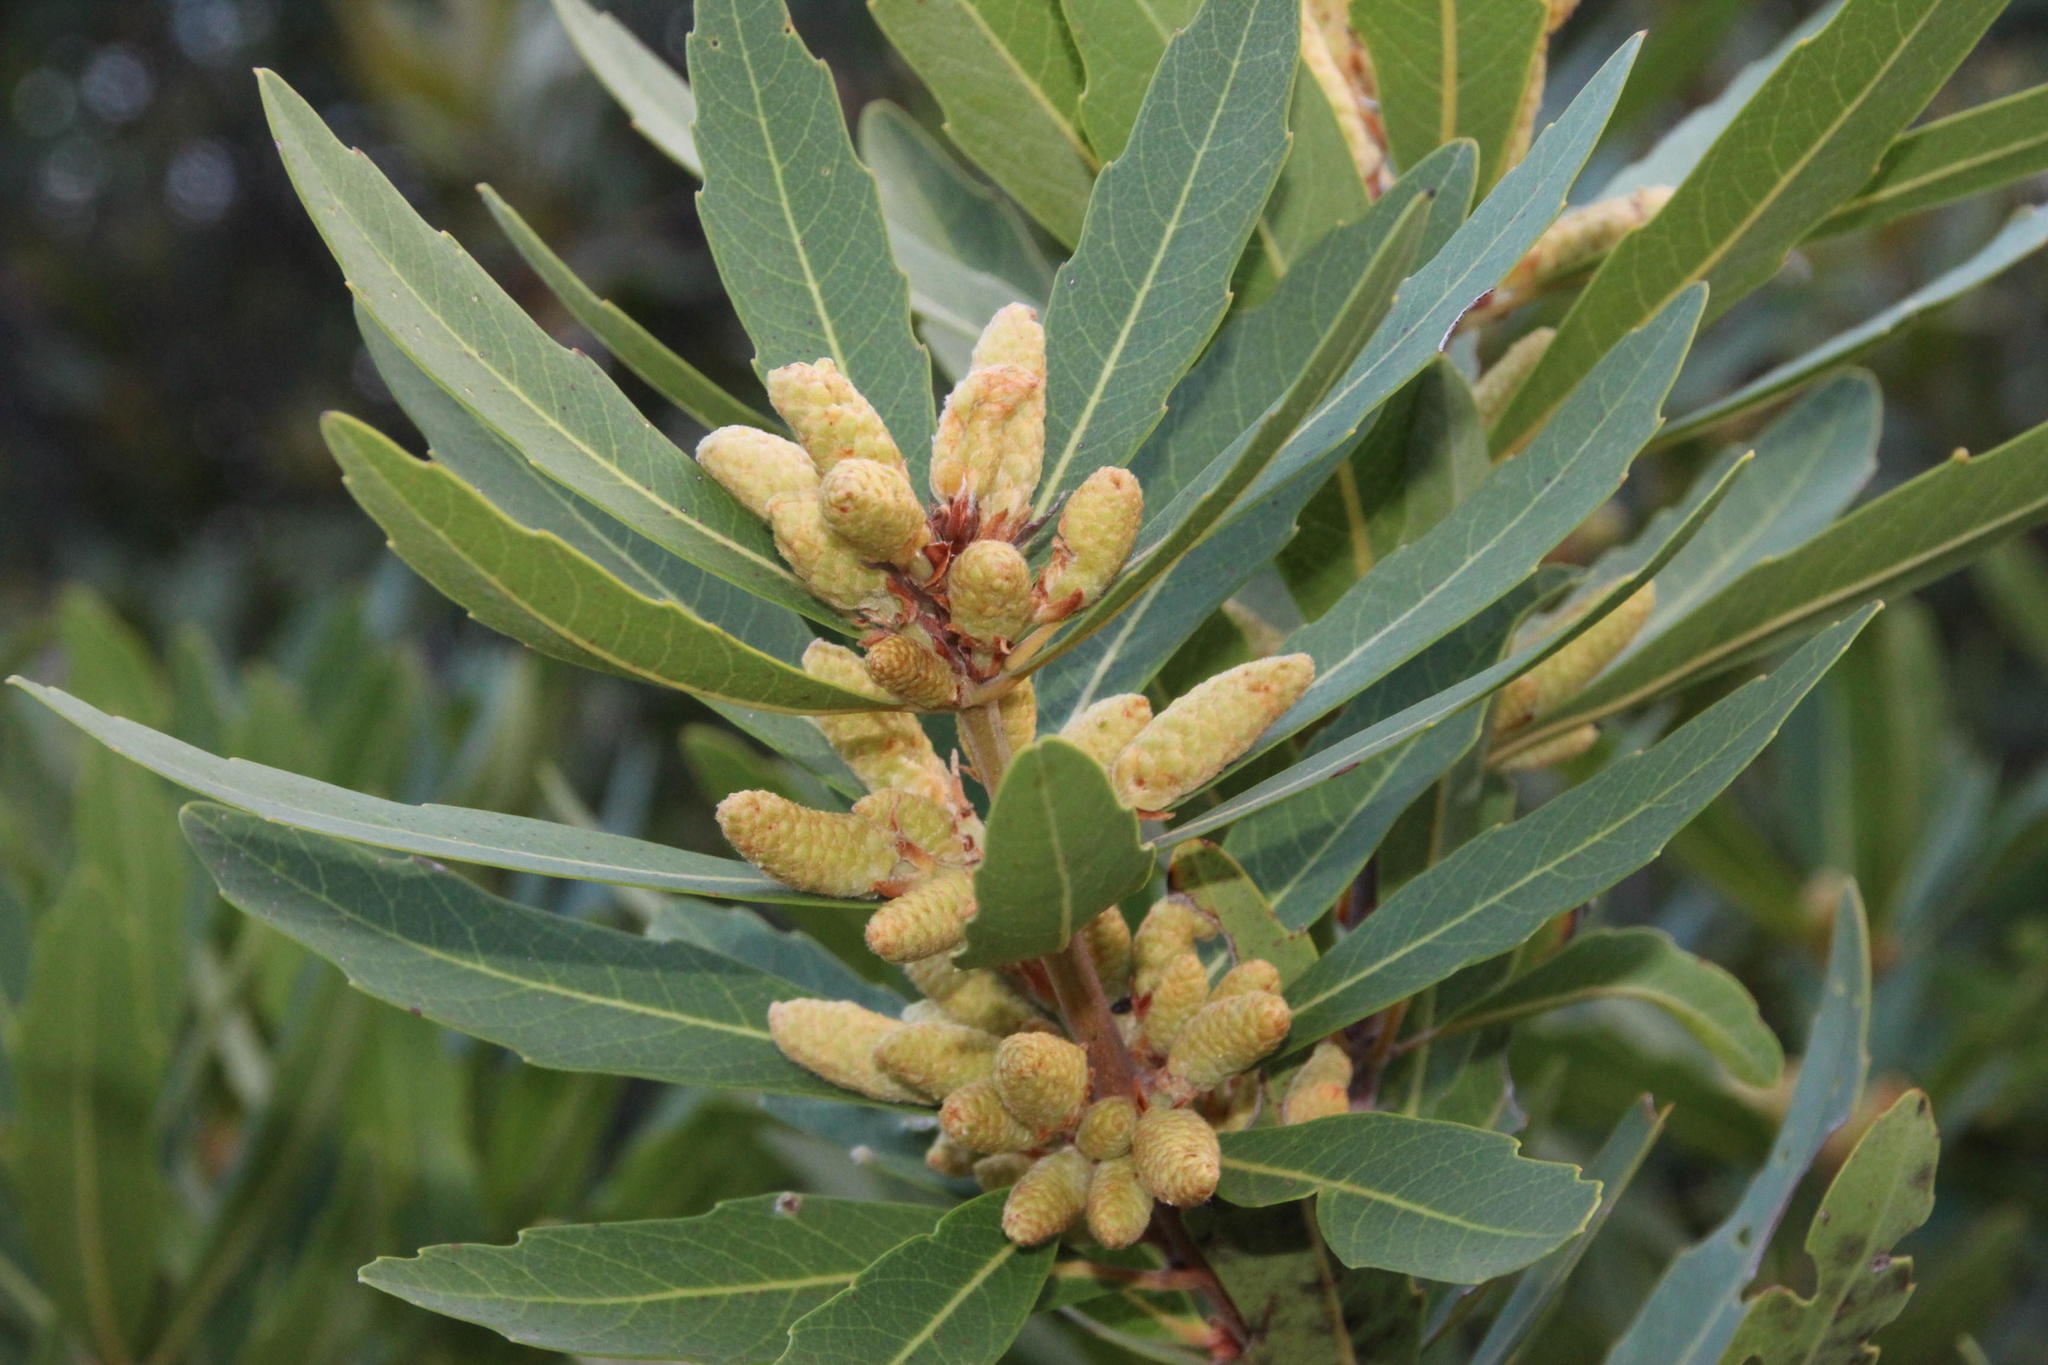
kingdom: Plantae
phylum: Tracheophyta
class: Magnoliopsida
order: Proteales
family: Proteaceae
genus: Brabejum
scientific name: Brabejum stellatifolium
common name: Wild almond
